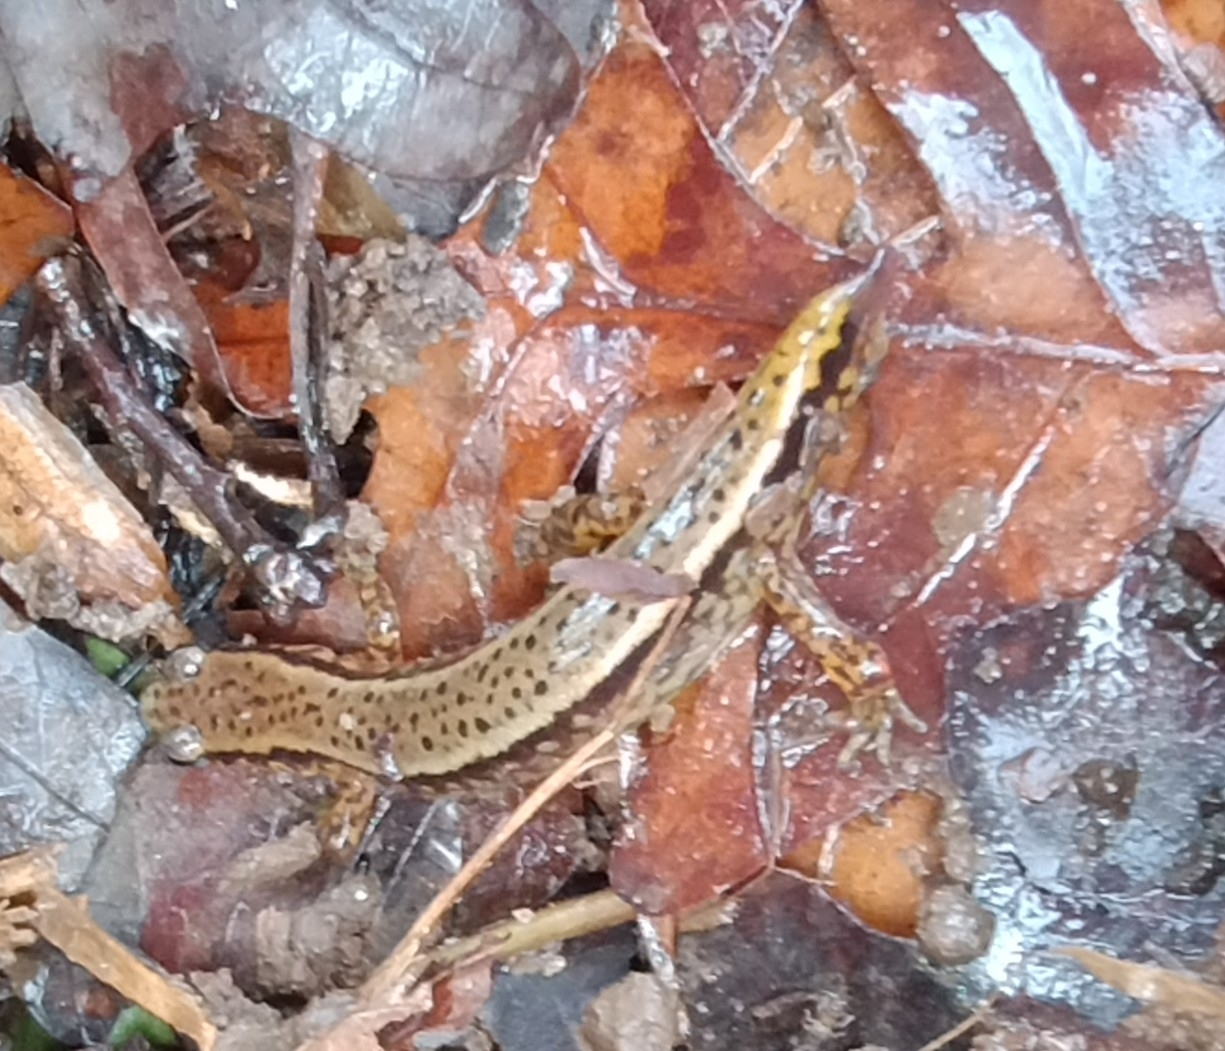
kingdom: Animalia
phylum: Chordata
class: Amphibia
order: Caudata
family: Plethodontidae
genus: Eurycea
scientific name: Eurycea cirrigera
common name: Southern two-lined salamander
